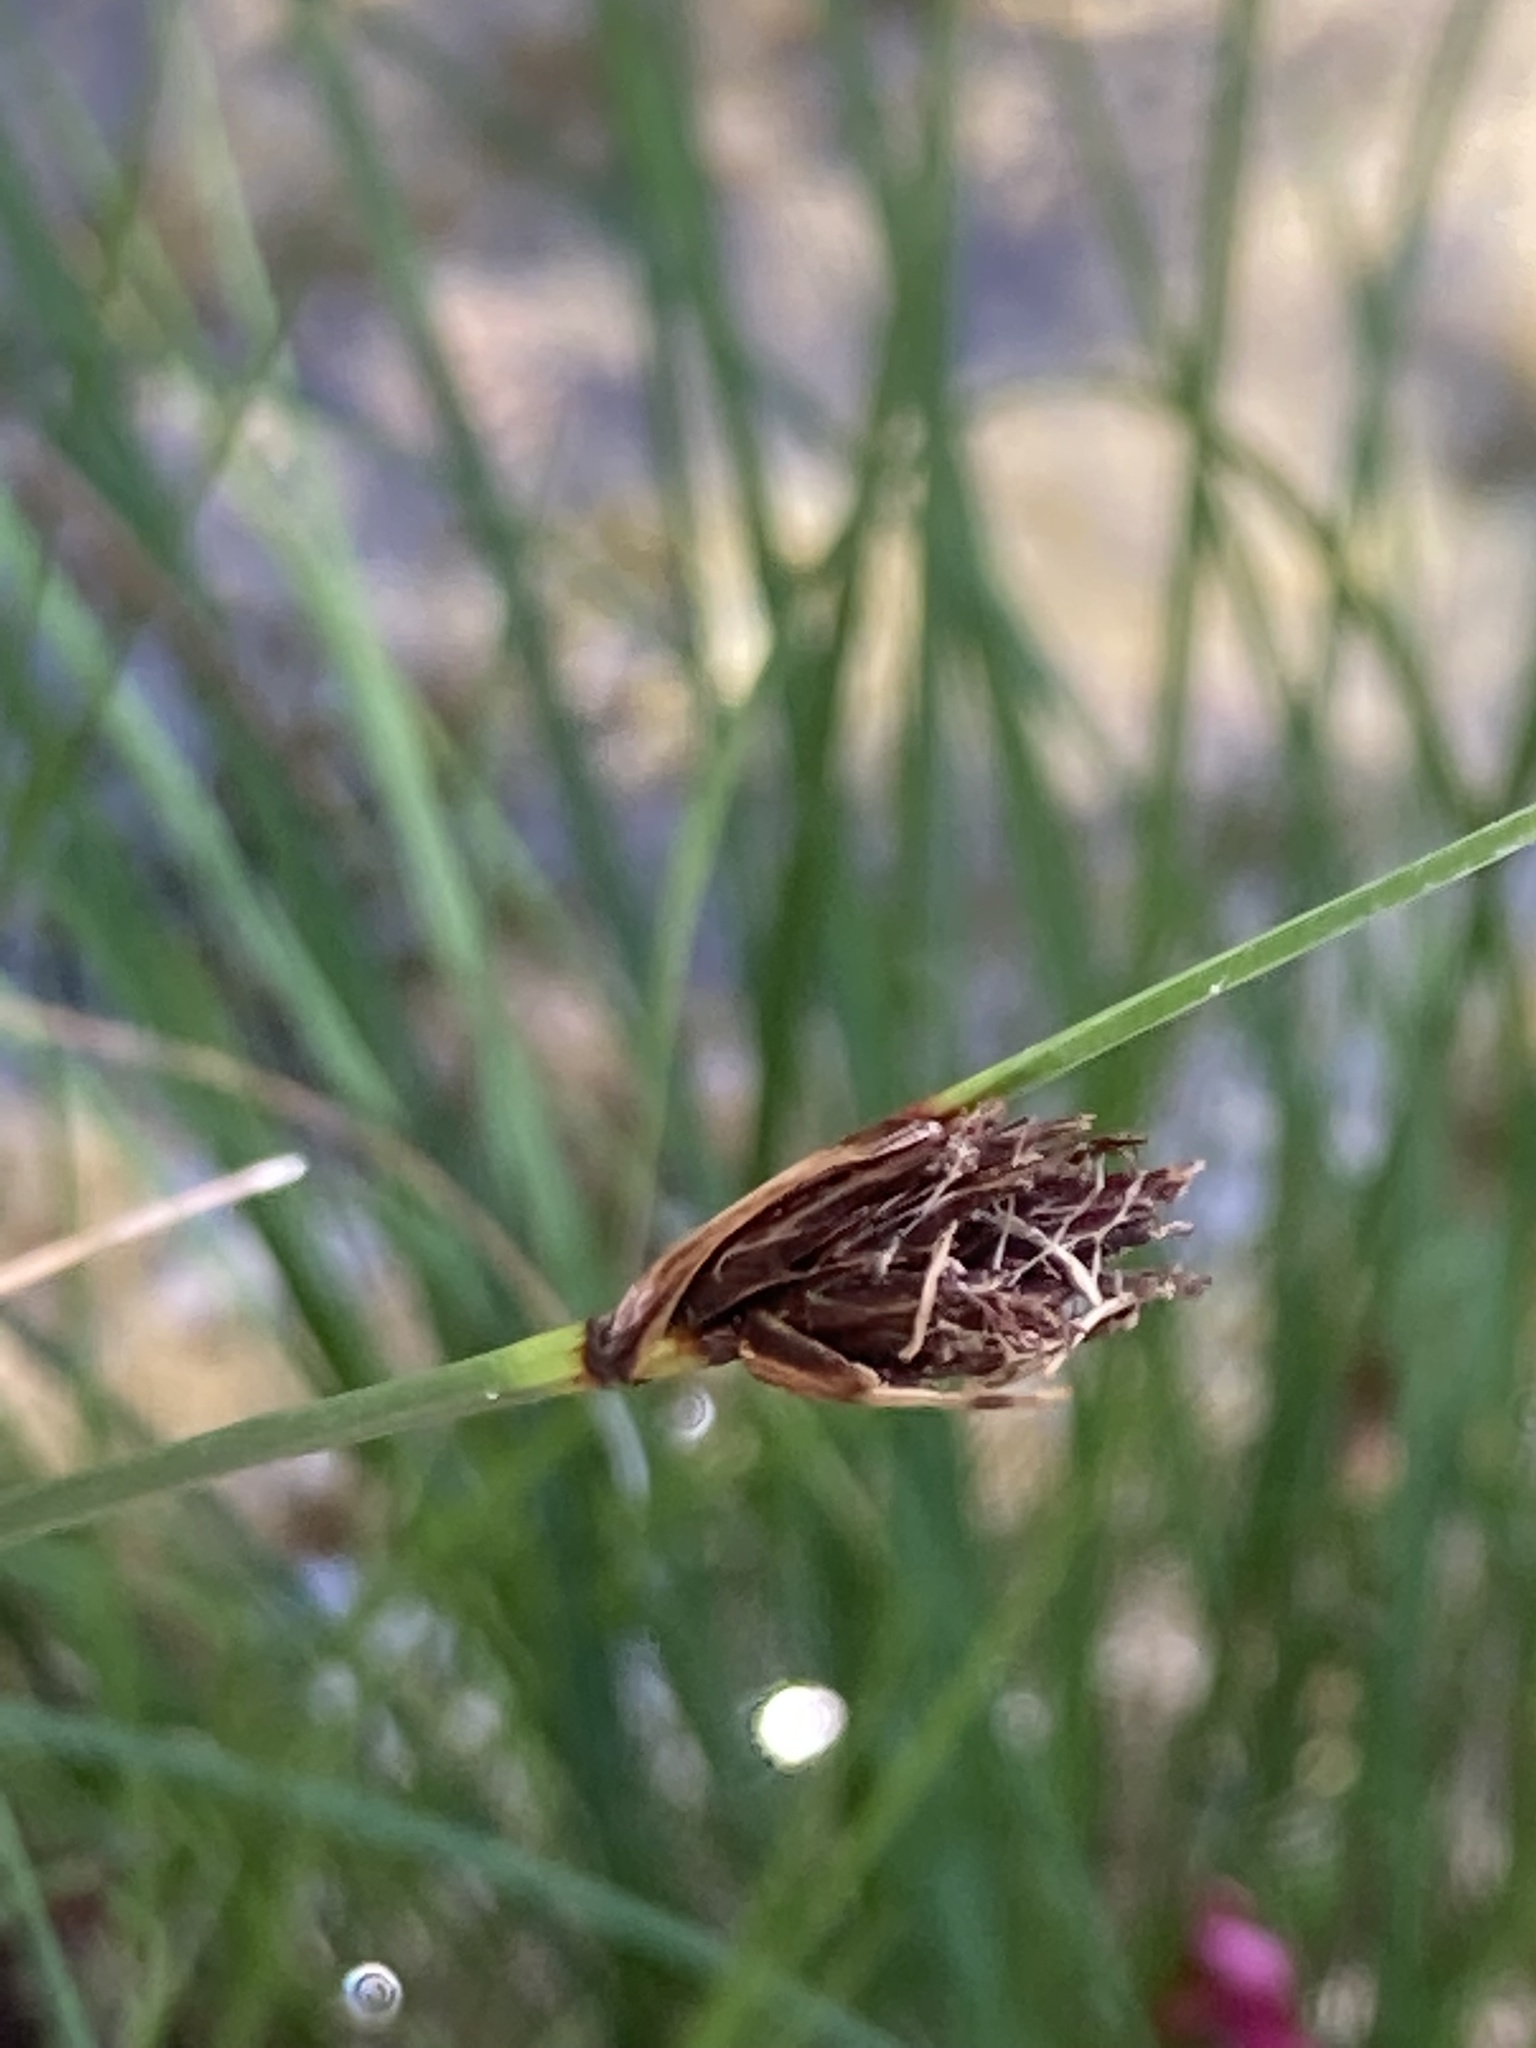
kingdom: Plantae
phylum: Tracheophyta
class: Liliopsida
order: Poales
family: Cyperaceae
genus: Schoenus
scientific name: Schoenus nigricans
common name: Black bog-rush
